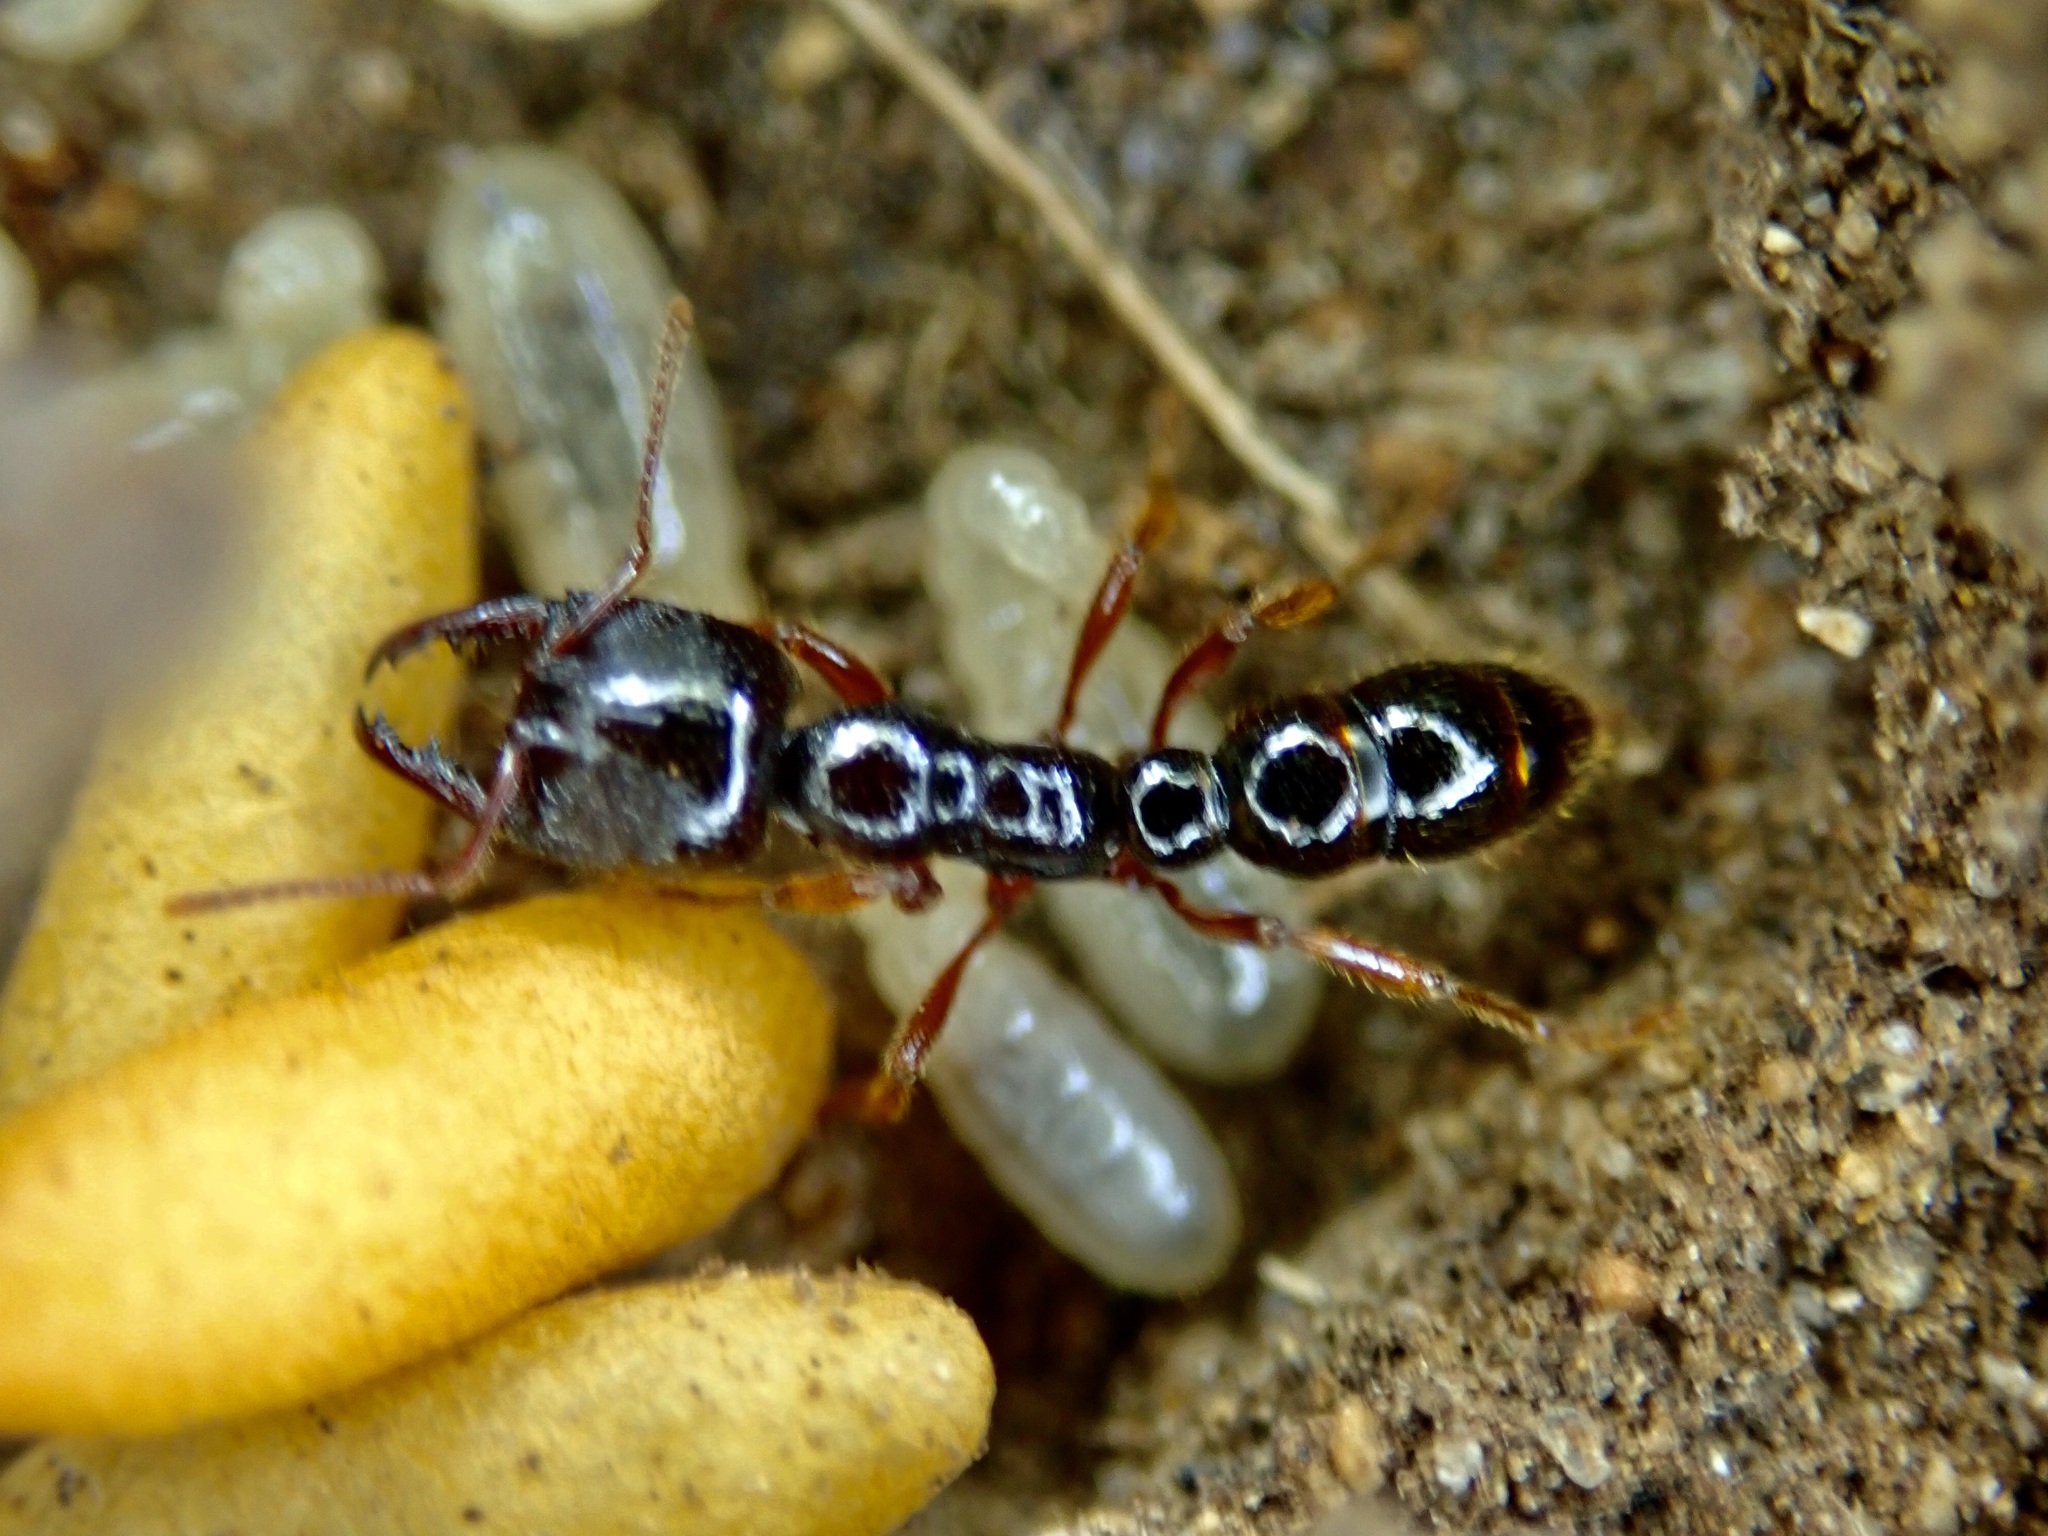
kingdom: Animalia
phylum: Arthropoda
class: Insecta
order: Hymenoptera
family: Formicidae
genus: Amblyopone
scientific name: Amblyopone australis
